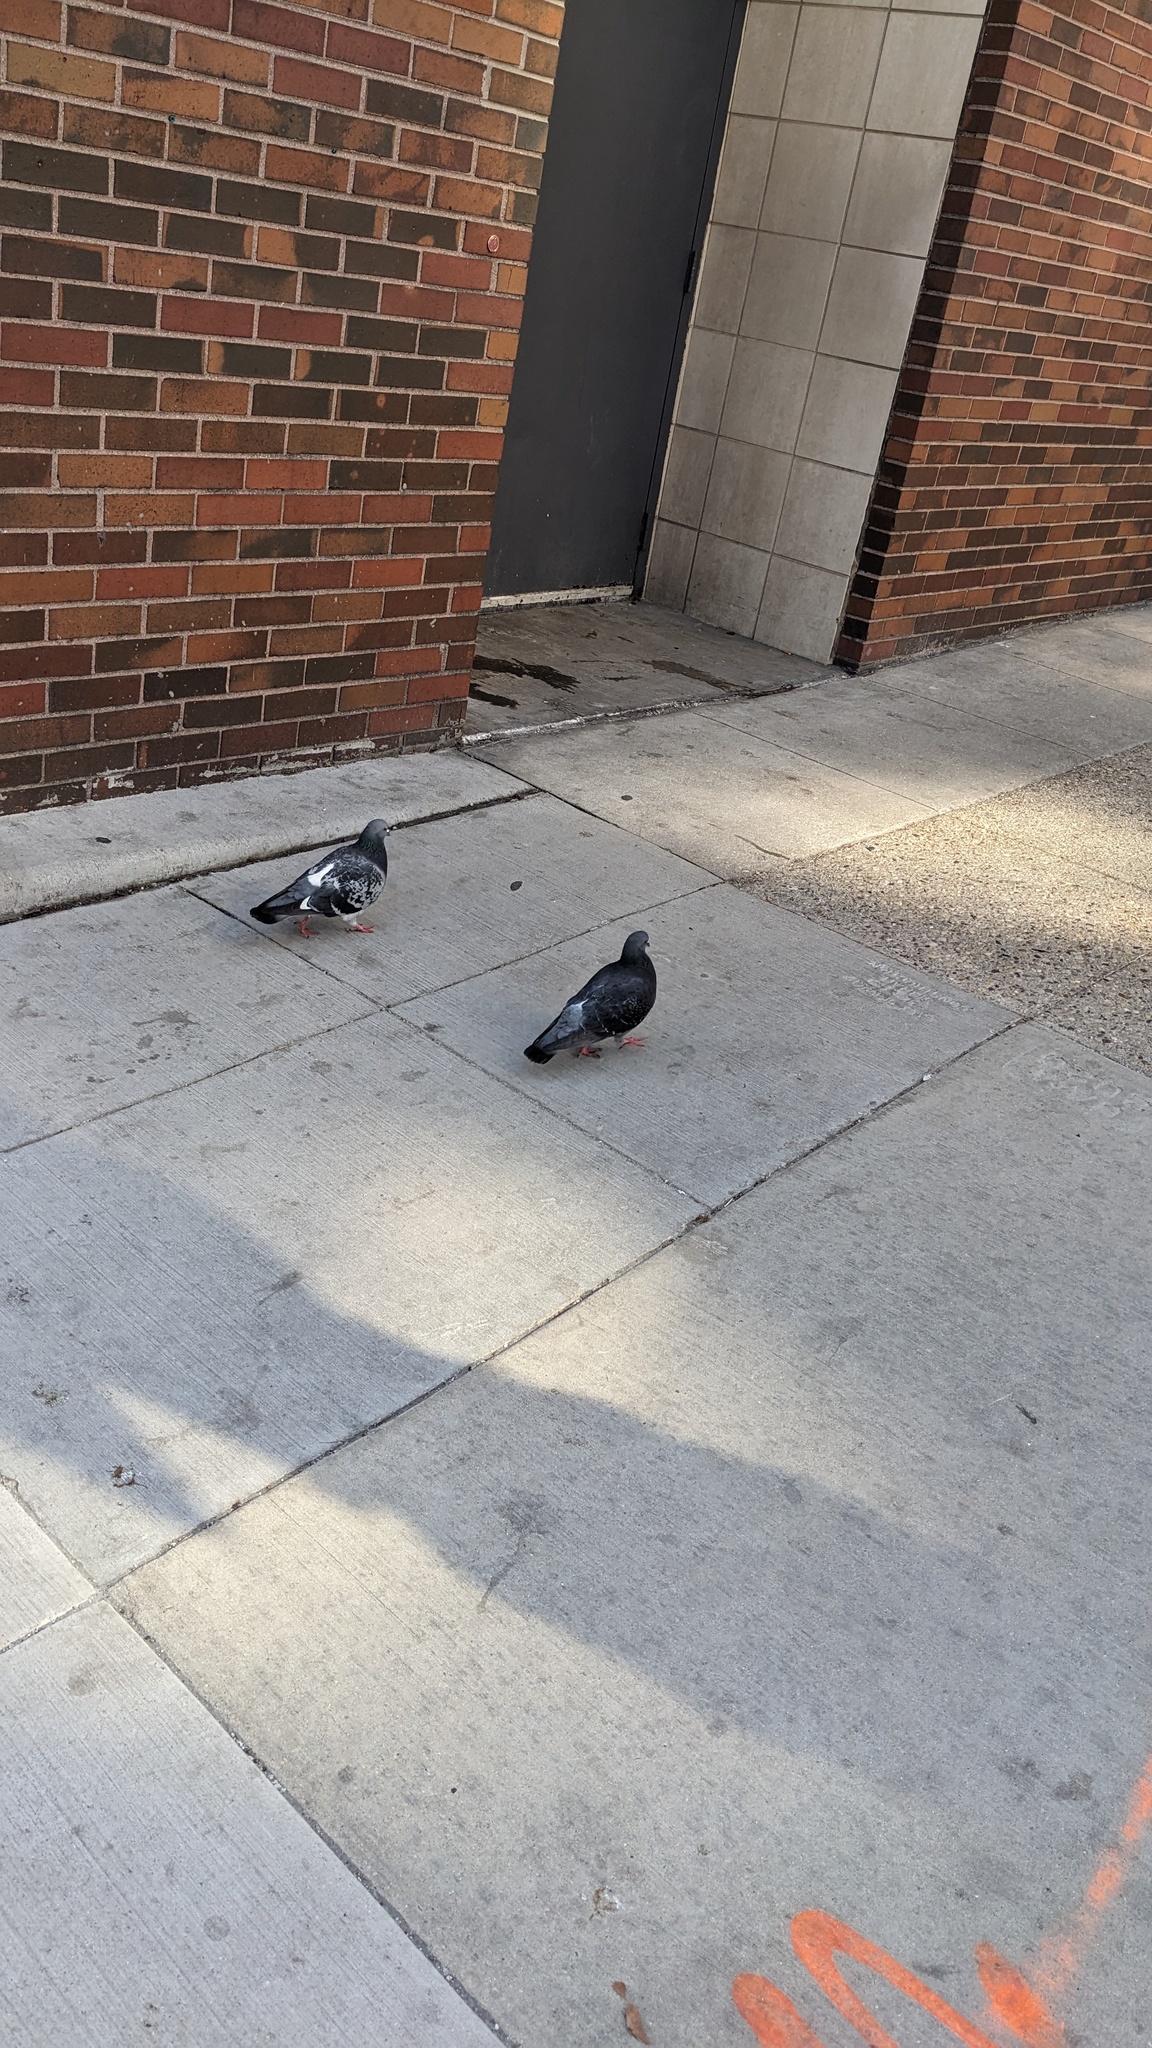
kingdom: Animalia
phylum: Chordata
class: Aves
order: Columbiformes
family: Columbidae
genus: Columba
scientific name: Columba livia
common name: Rock pigeon
